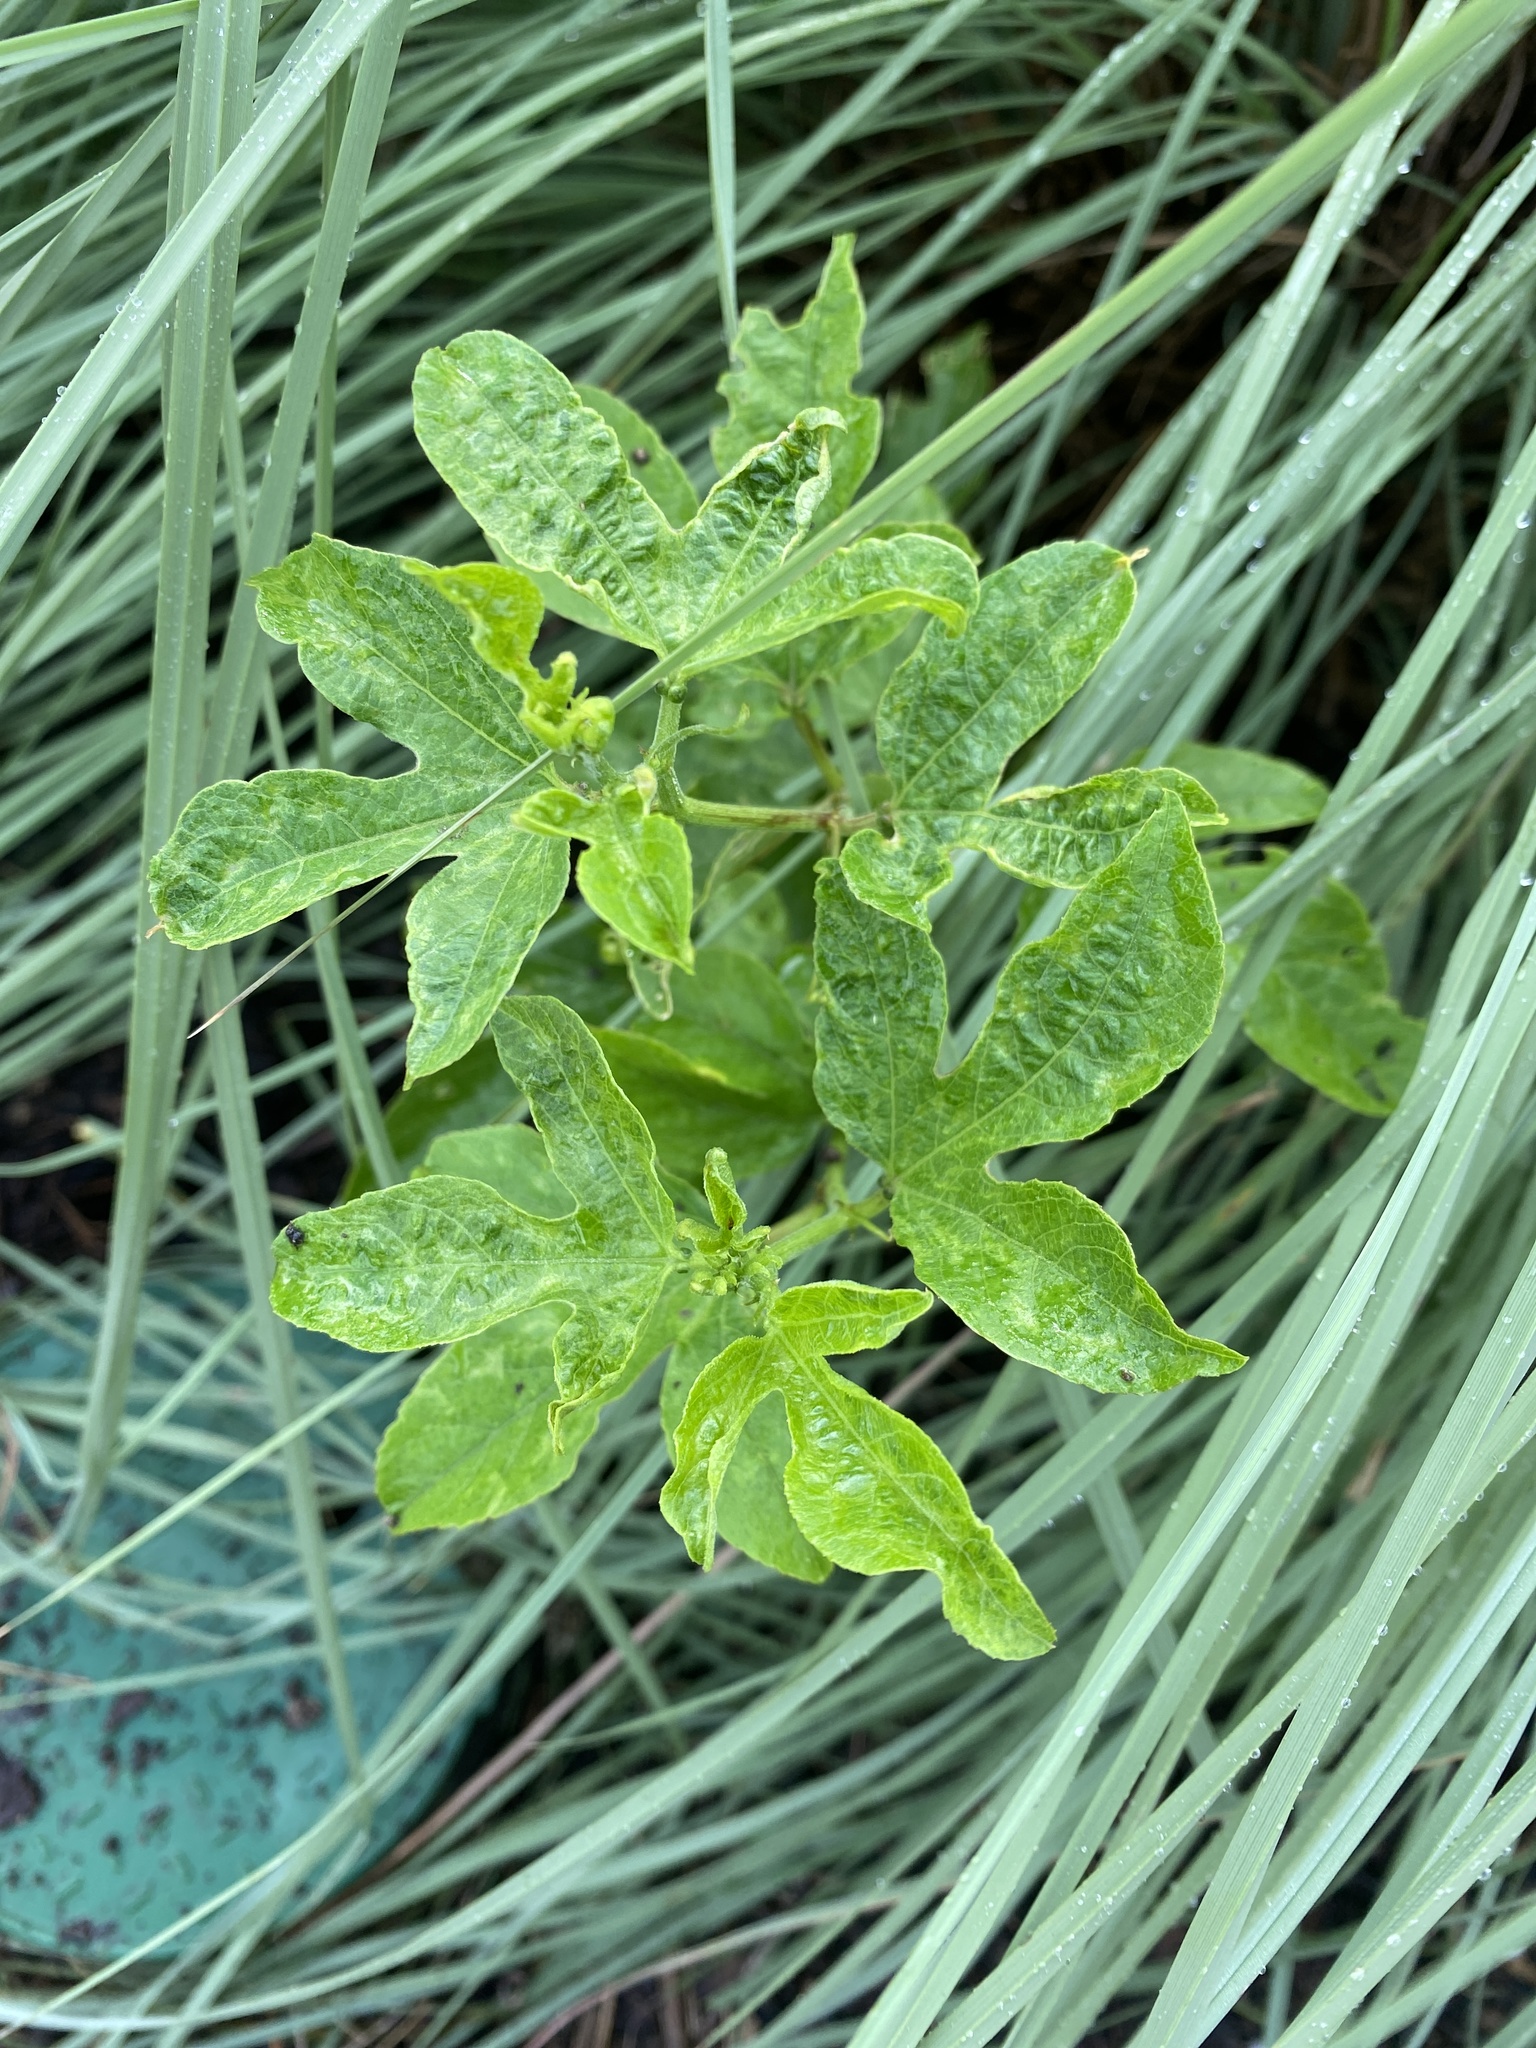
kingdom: Plantae
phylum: Tracheophyta
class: Magnoliopsida
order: Malpighiales
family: Passifloraceae
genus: Passiflora
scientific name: Passiflora incarnata
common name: Apricot-vine
